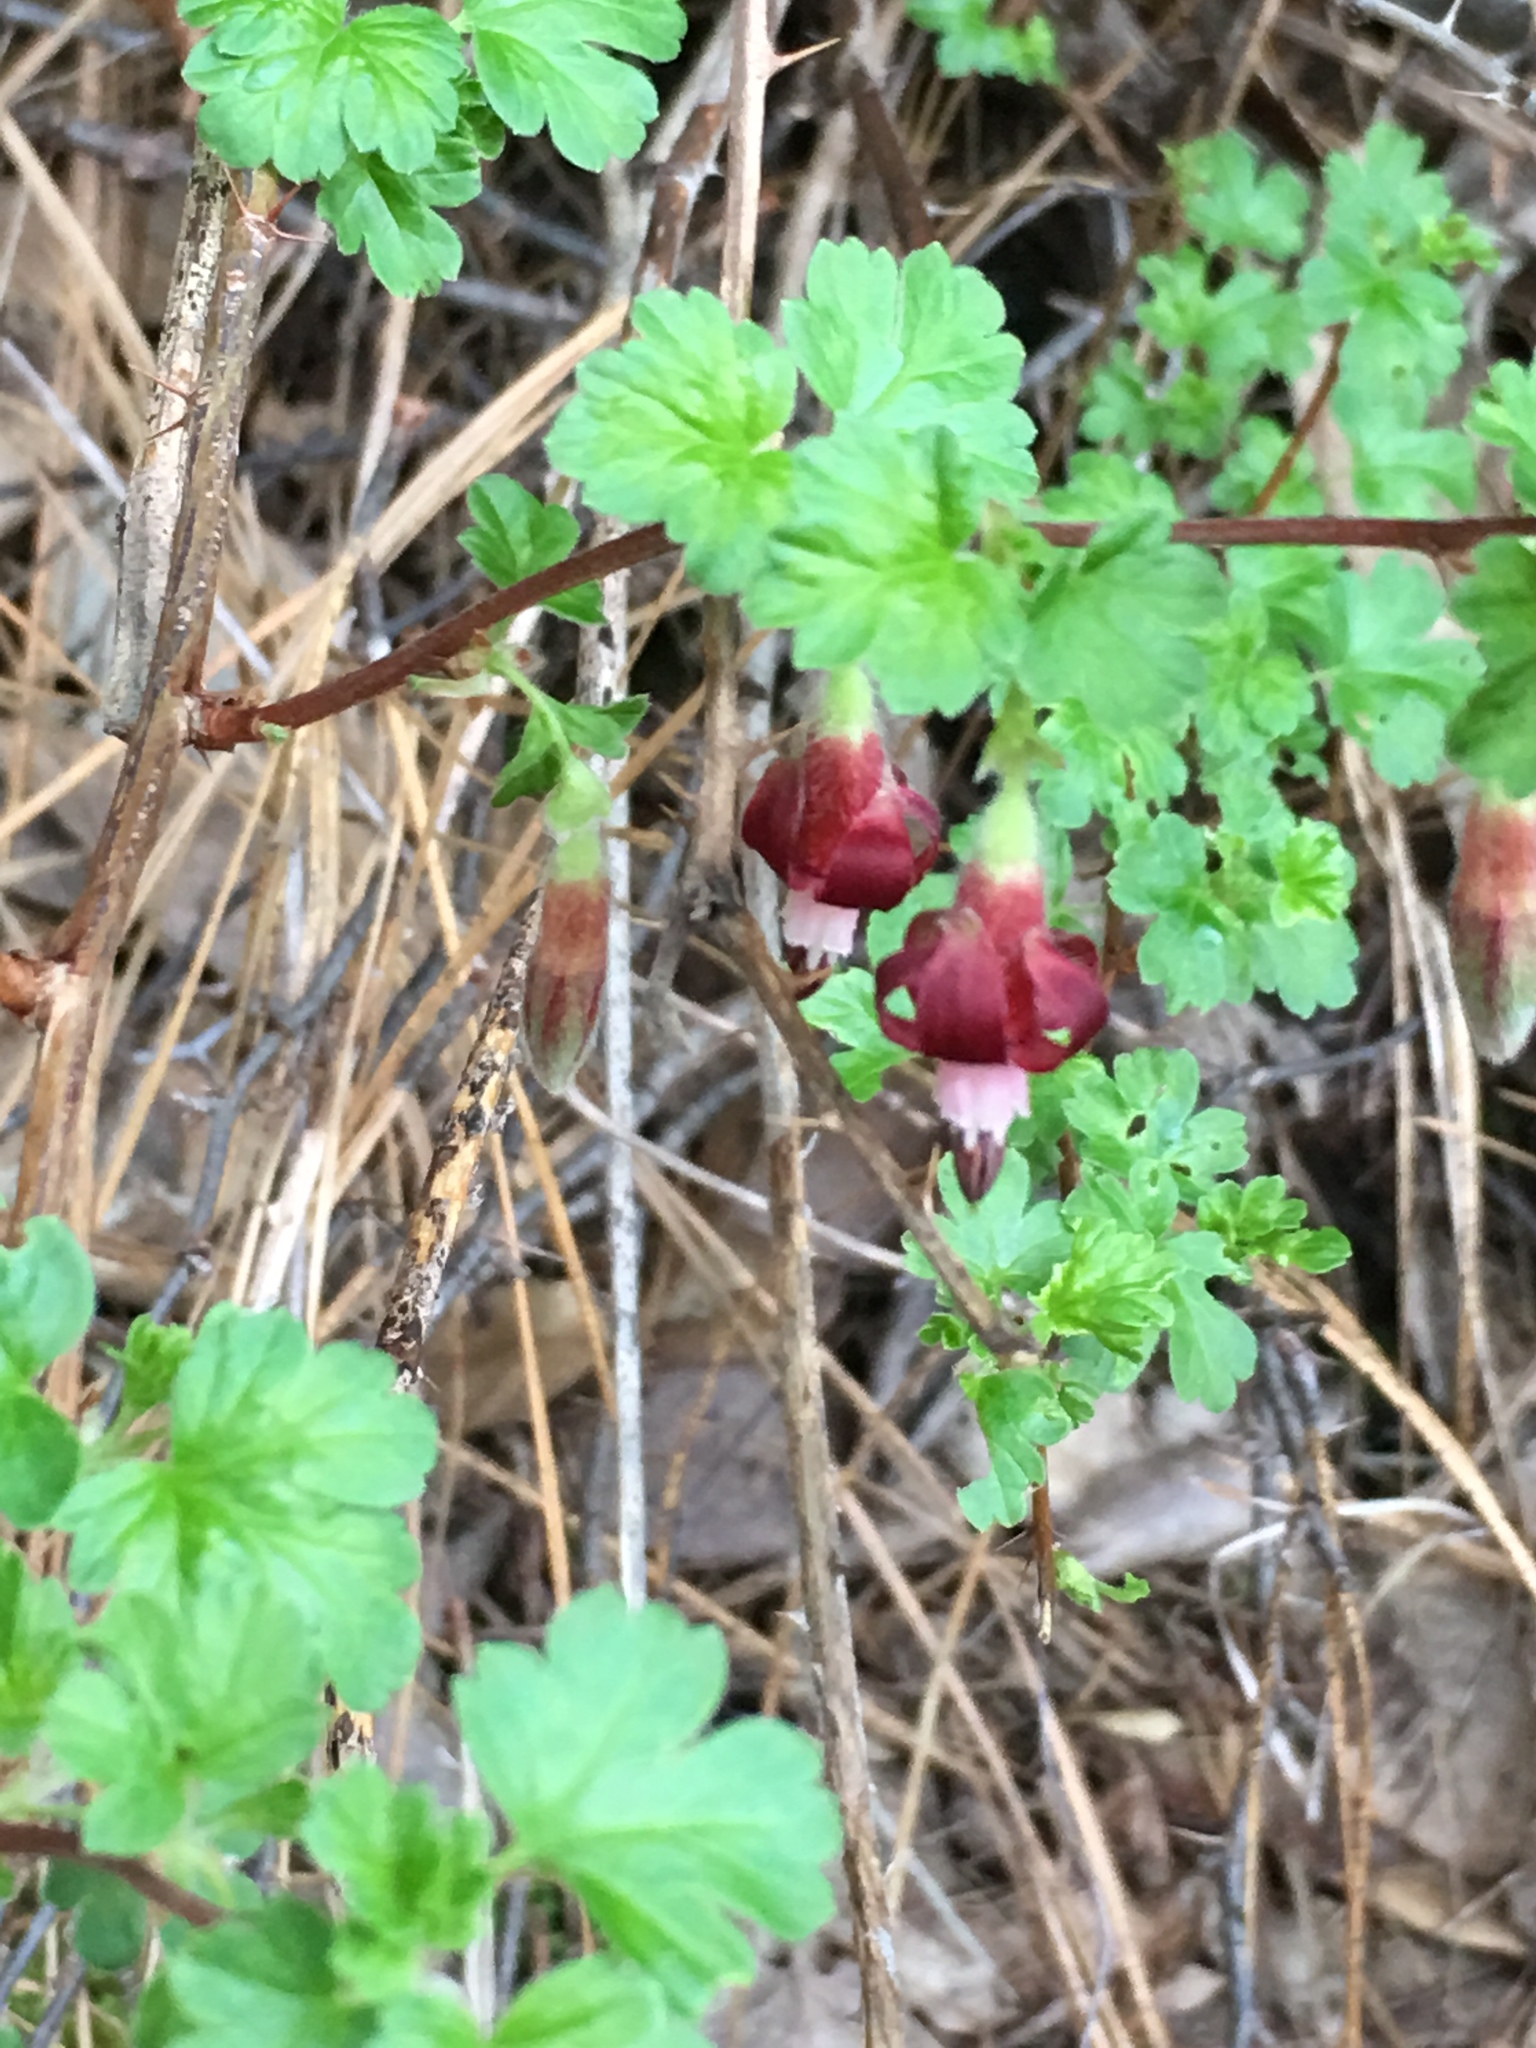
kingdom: Plantae
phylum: Tracheophyta
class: Magnoliopsida
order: Saxifragales
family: Grossulariaceae
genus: Ribes
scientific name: Ribes roezlii
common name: Sierra gooseberry
